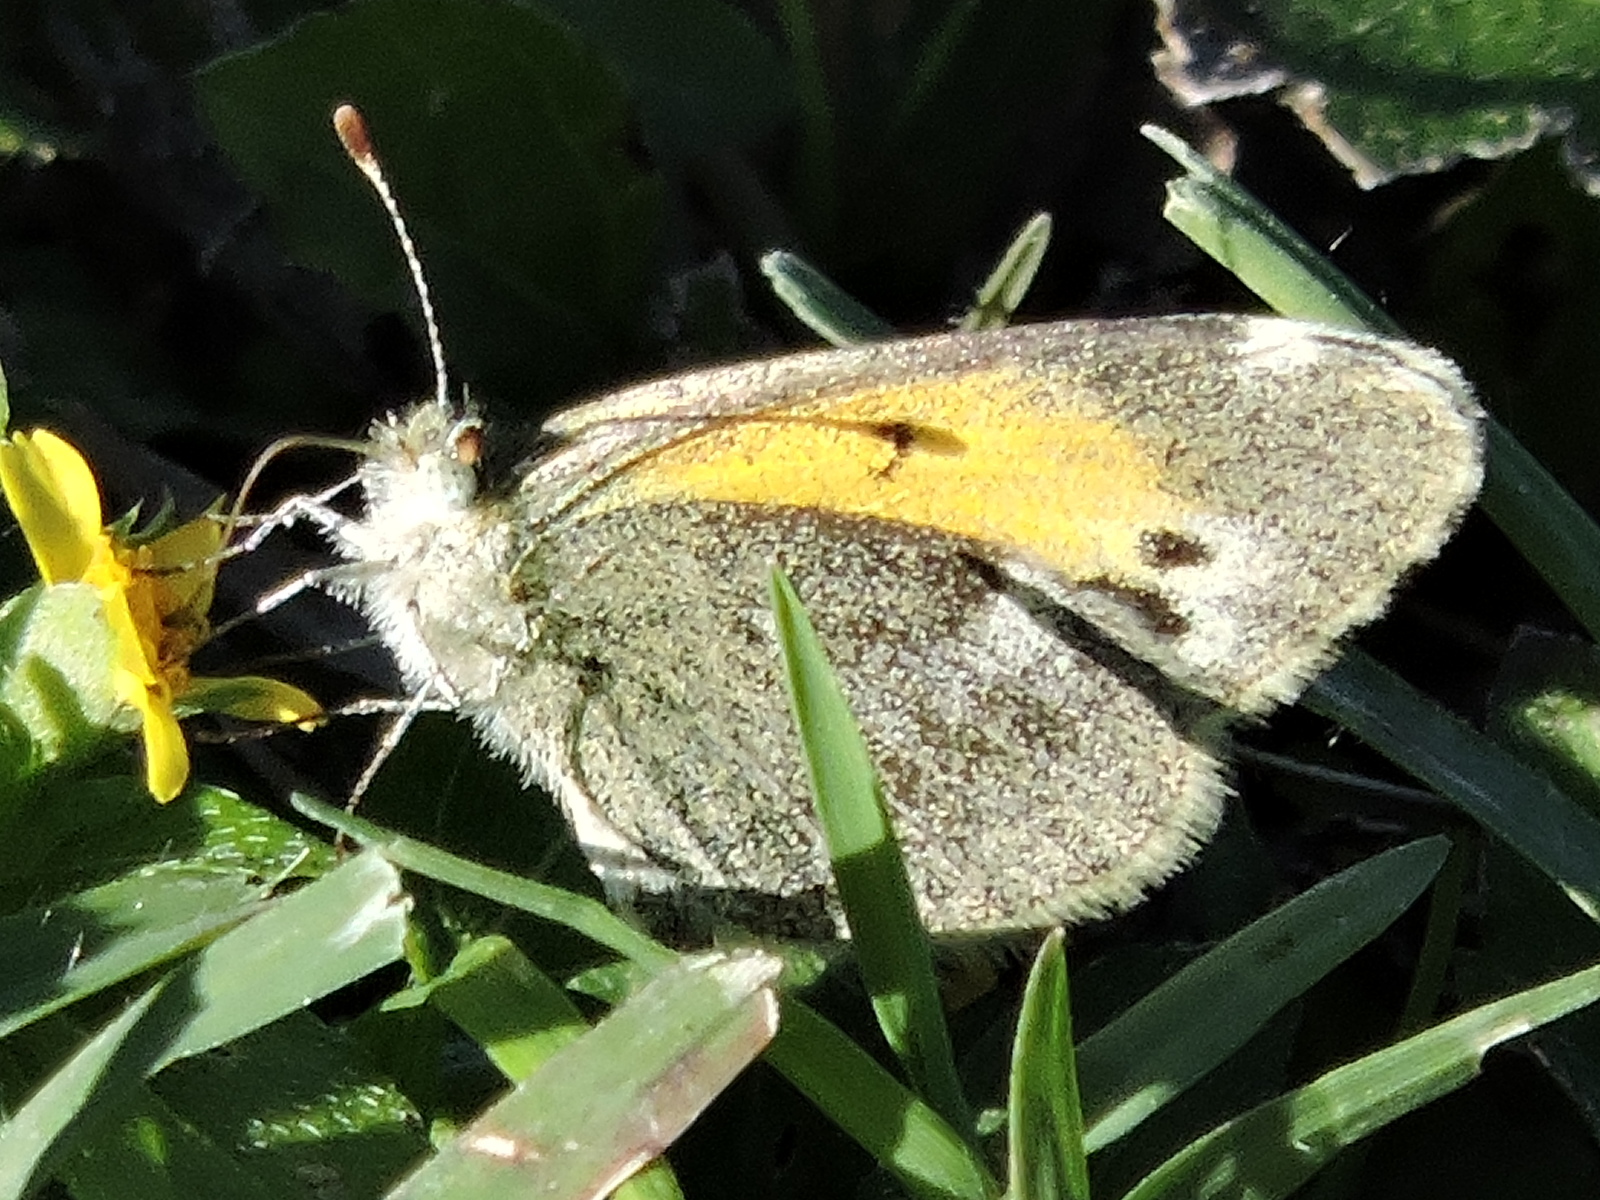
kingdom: Animalia
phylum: Arthropoda
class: Insecta
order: Lepidoptera
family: Pieridae
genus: Nathalis
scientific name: Nathalis iole
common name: Dainty sulphur
